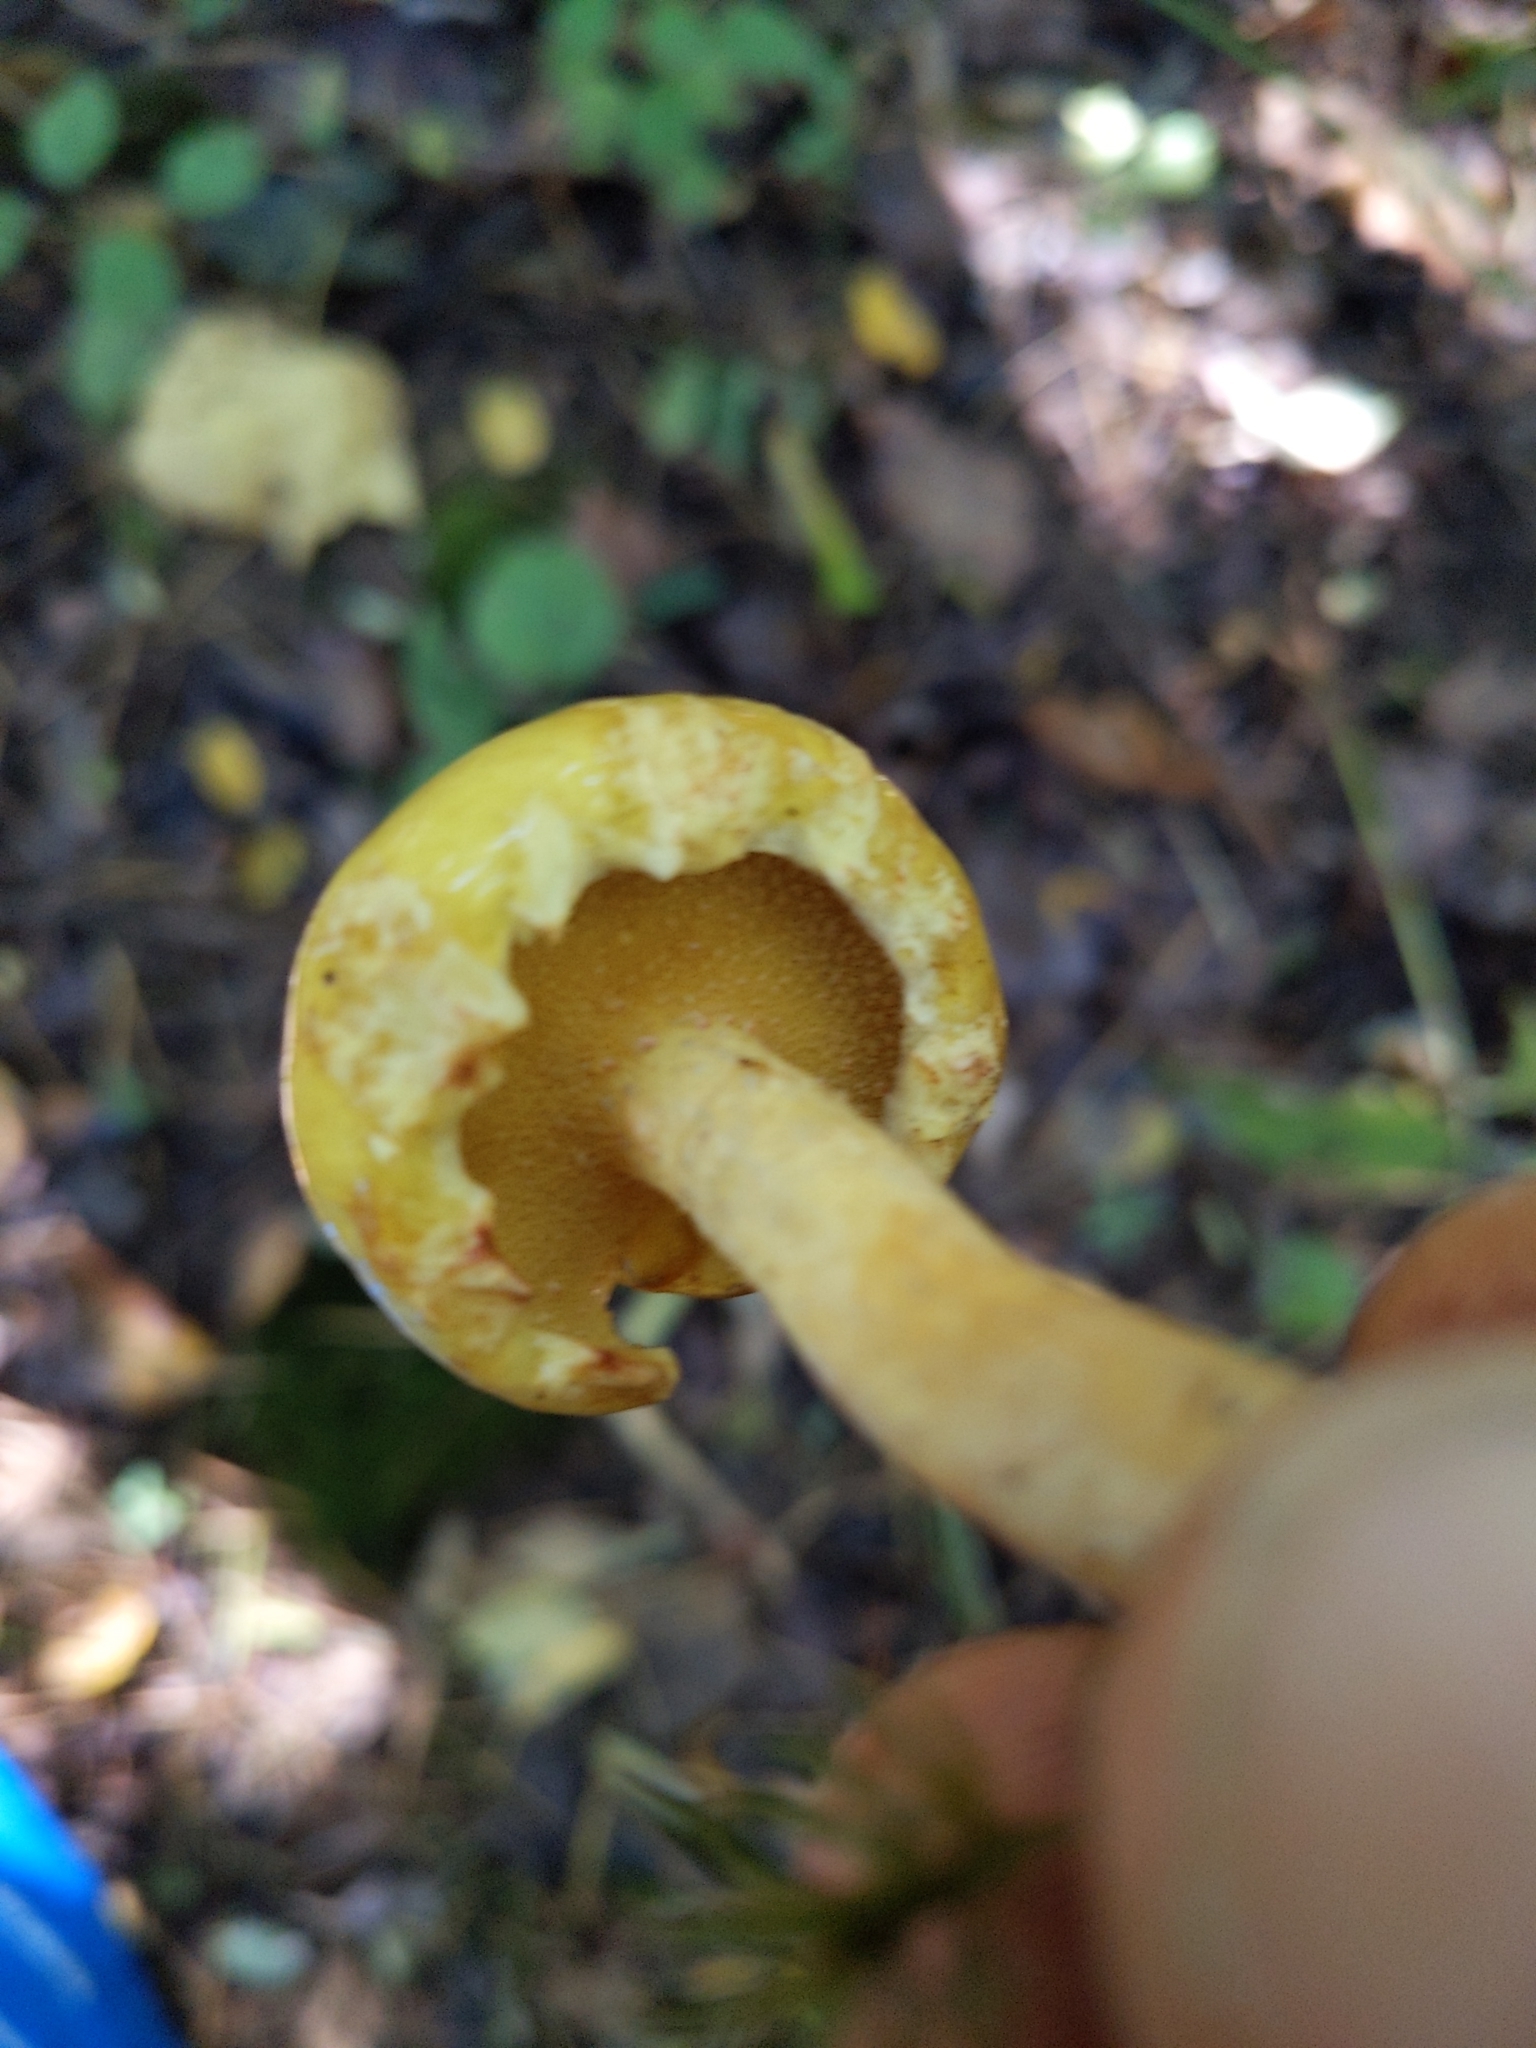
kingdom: Fungi
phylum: Basidiomycota
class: Agaricomycetes
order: Boletales
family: Suillaceae
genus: Suillus
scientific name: Suillus americanus
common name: Chicken fat mushroom
